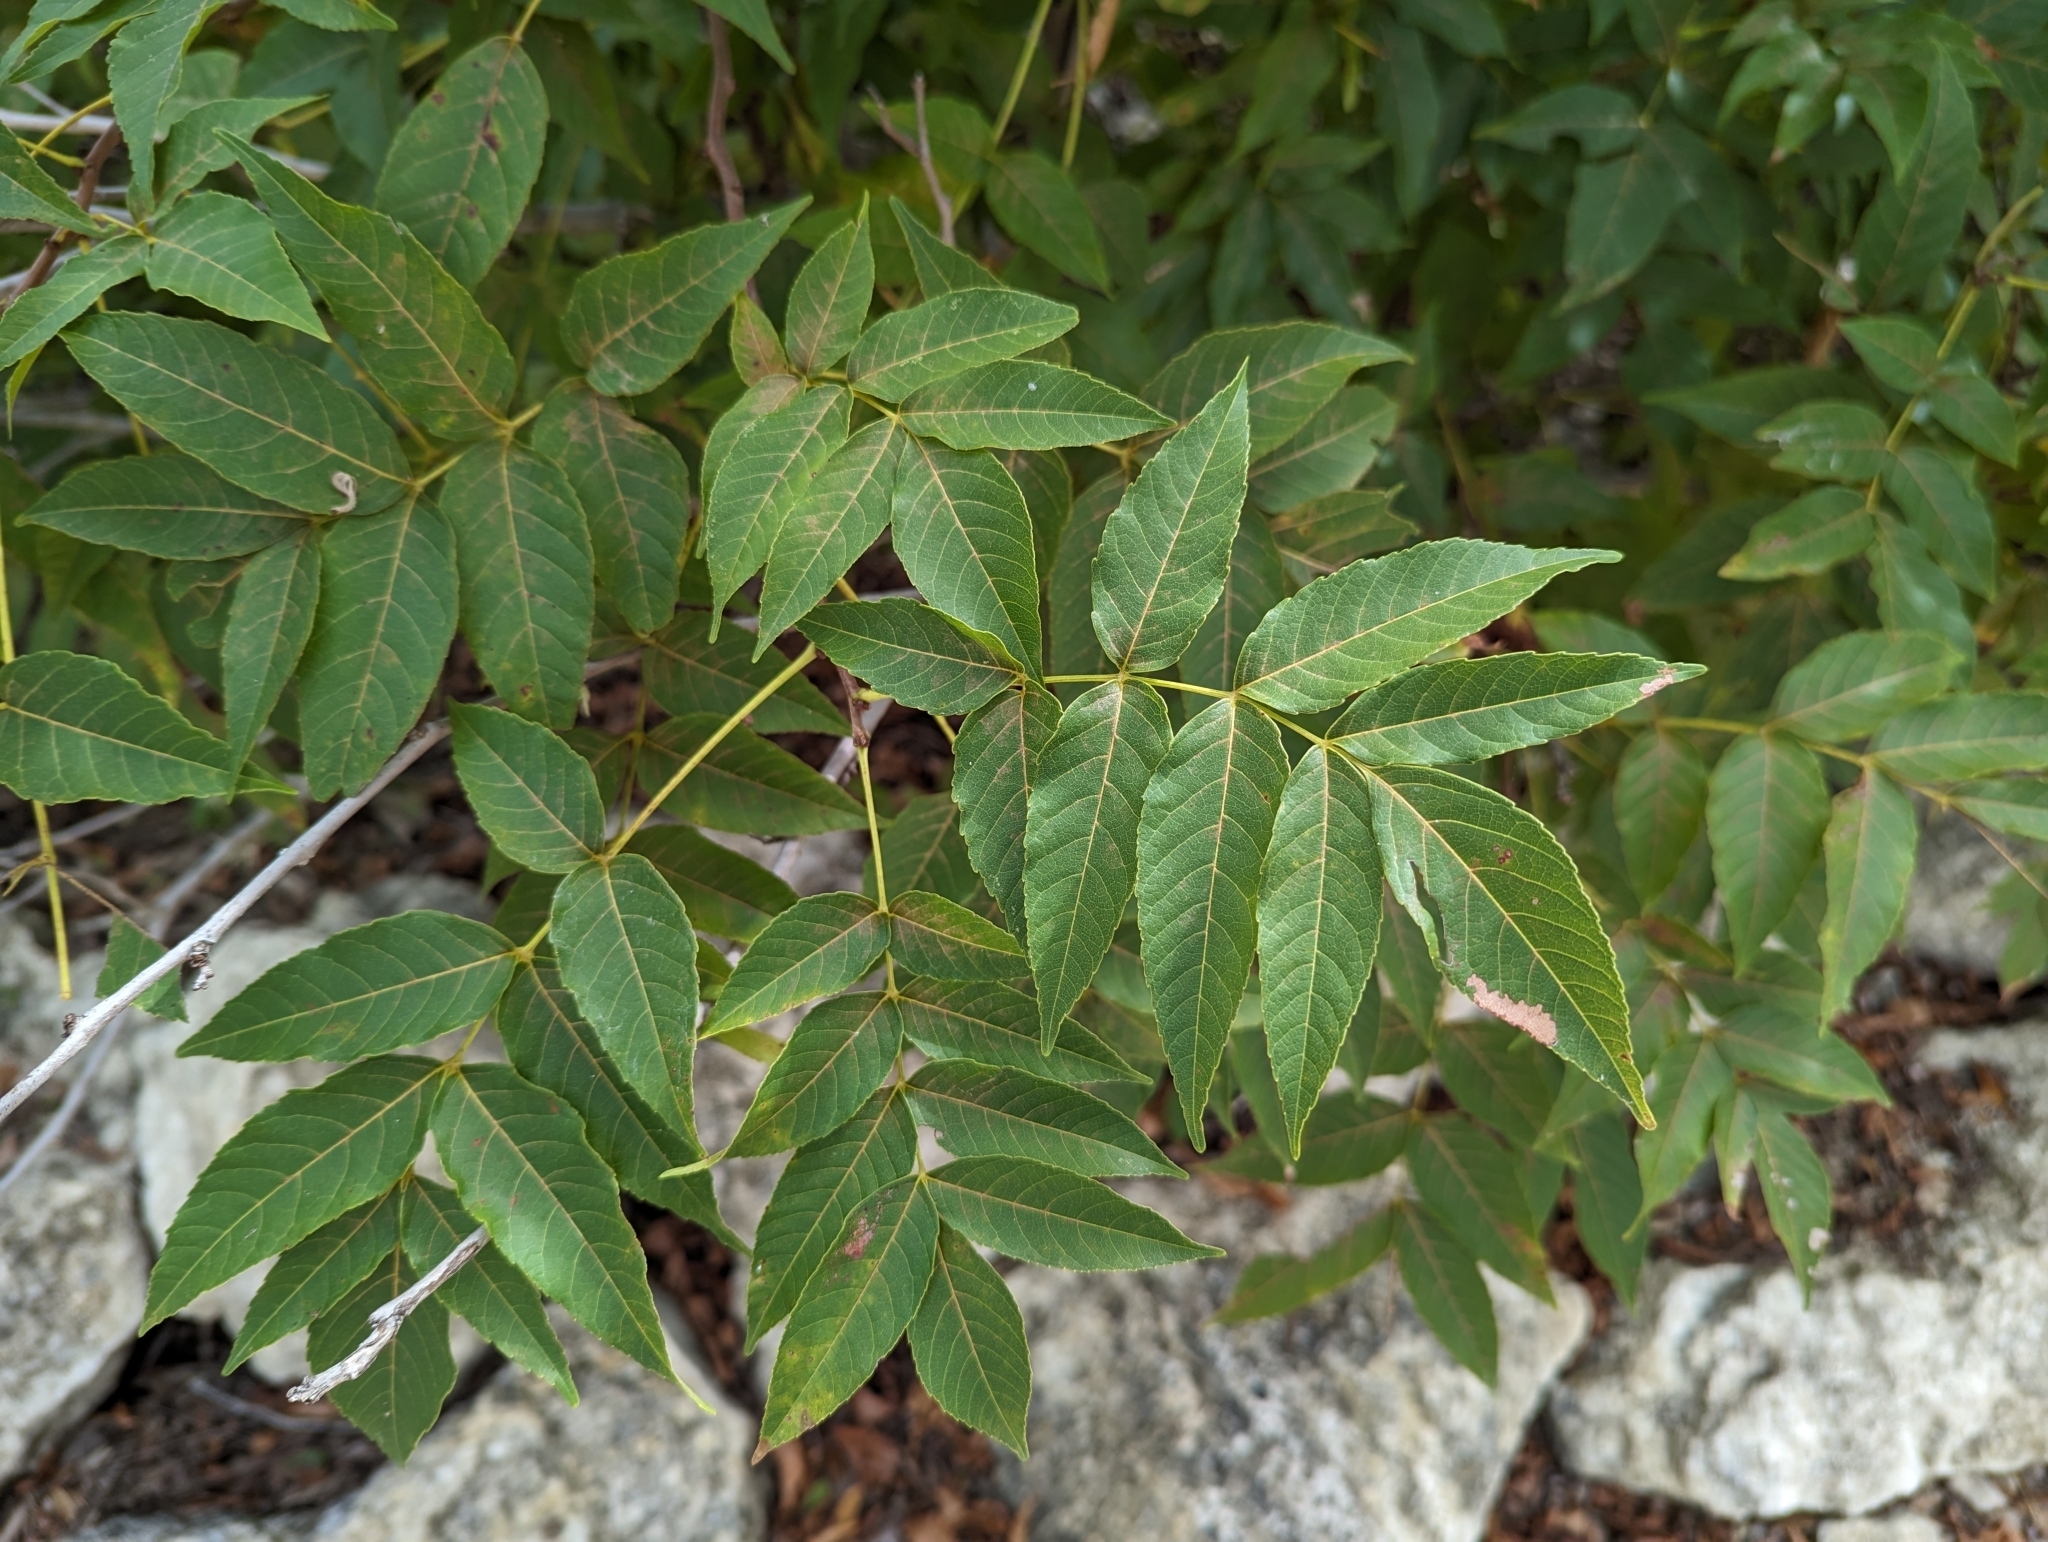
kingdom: Plantae
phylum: Tracheophyta
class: Magnoliopsida
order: Sapindales
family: Sapindaceae
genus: Ungnadia
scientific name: Ungnadia speciosa
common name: Texas-buckeye
